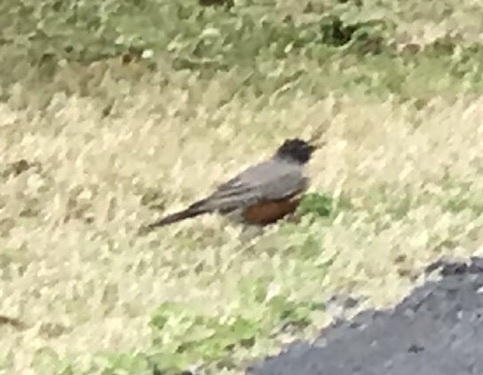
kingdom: Animalia
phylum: Chordata
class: Aves
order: Passeriformes
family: Turdidae
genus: Turdus
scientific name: Turdus migratorius
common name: American robin
